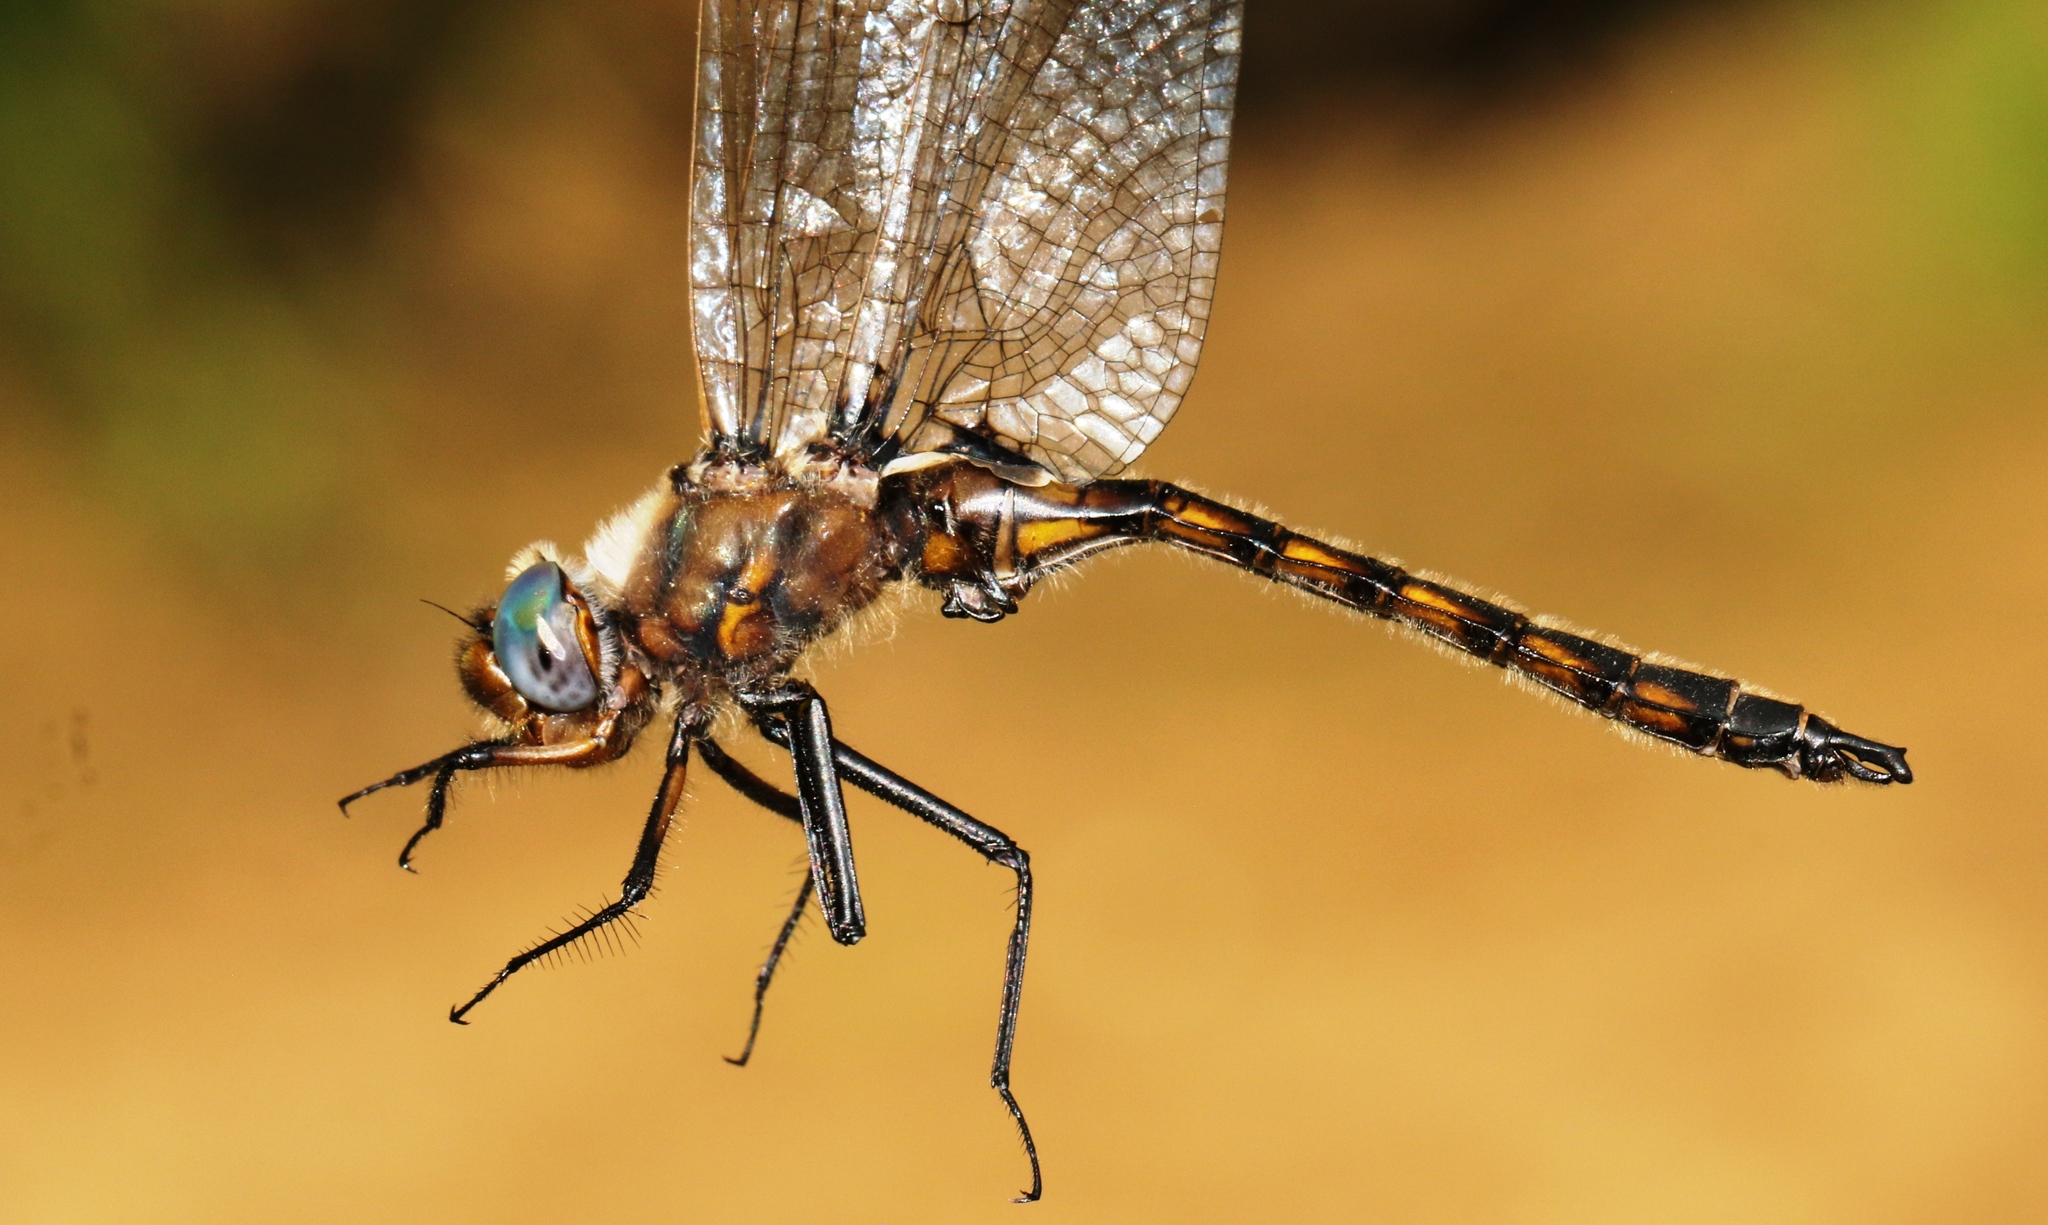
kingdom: Animalia
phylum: Arthropoda
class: Insecta
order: Odonata
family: Corduliidae
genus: Epitheca
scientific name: Epitheca canis
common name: Beaverpond baskettail
